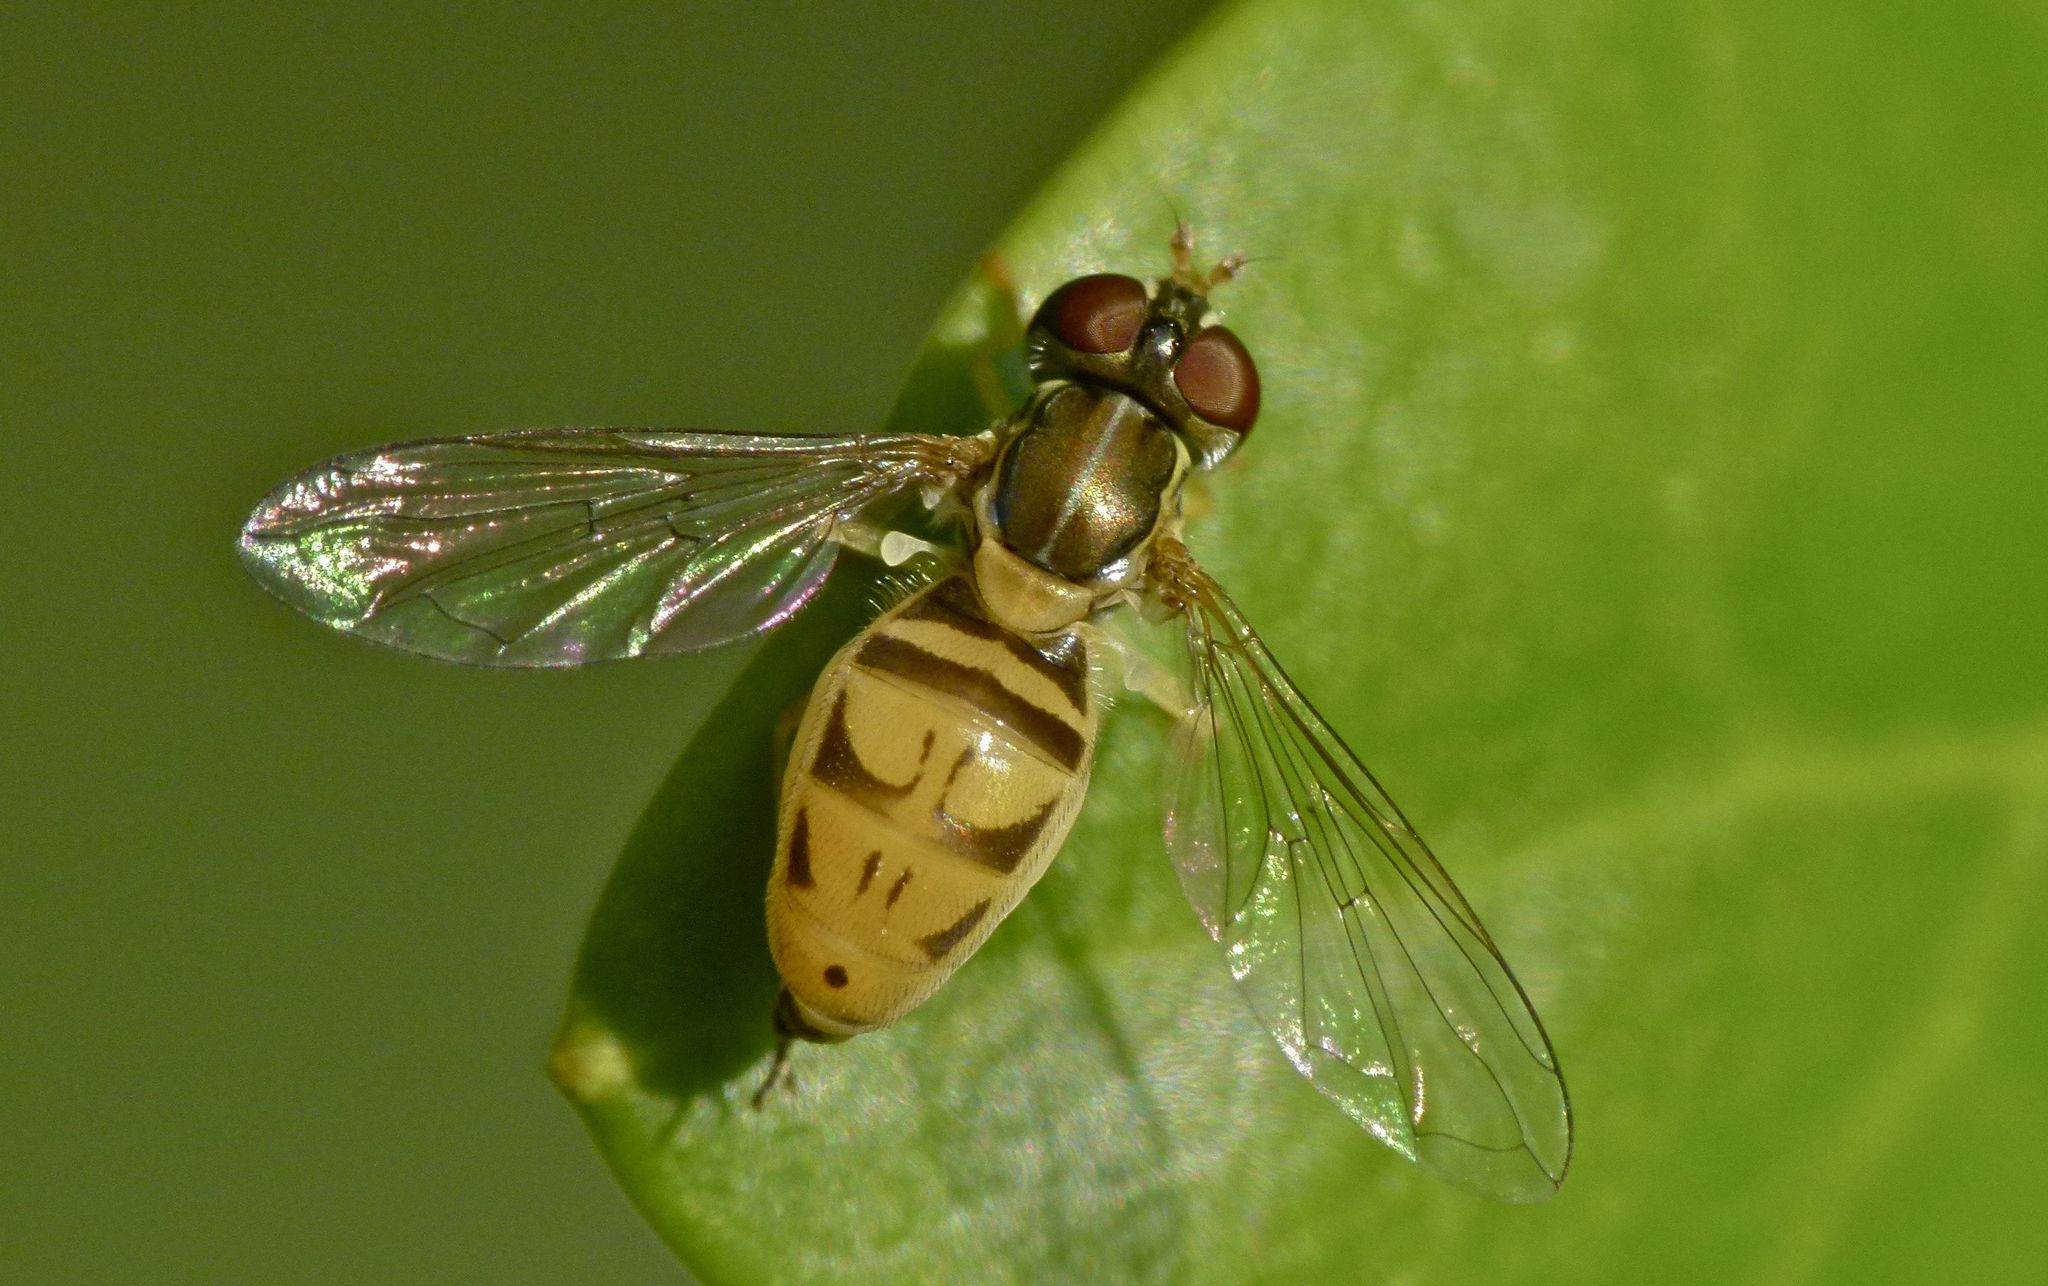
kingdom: Animalia
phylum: Arthropoda
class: Insecta
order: Diptera
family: Syrphidae
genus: Toxomerus
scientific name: Toxomerus marginatus
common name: Syrphid fly
